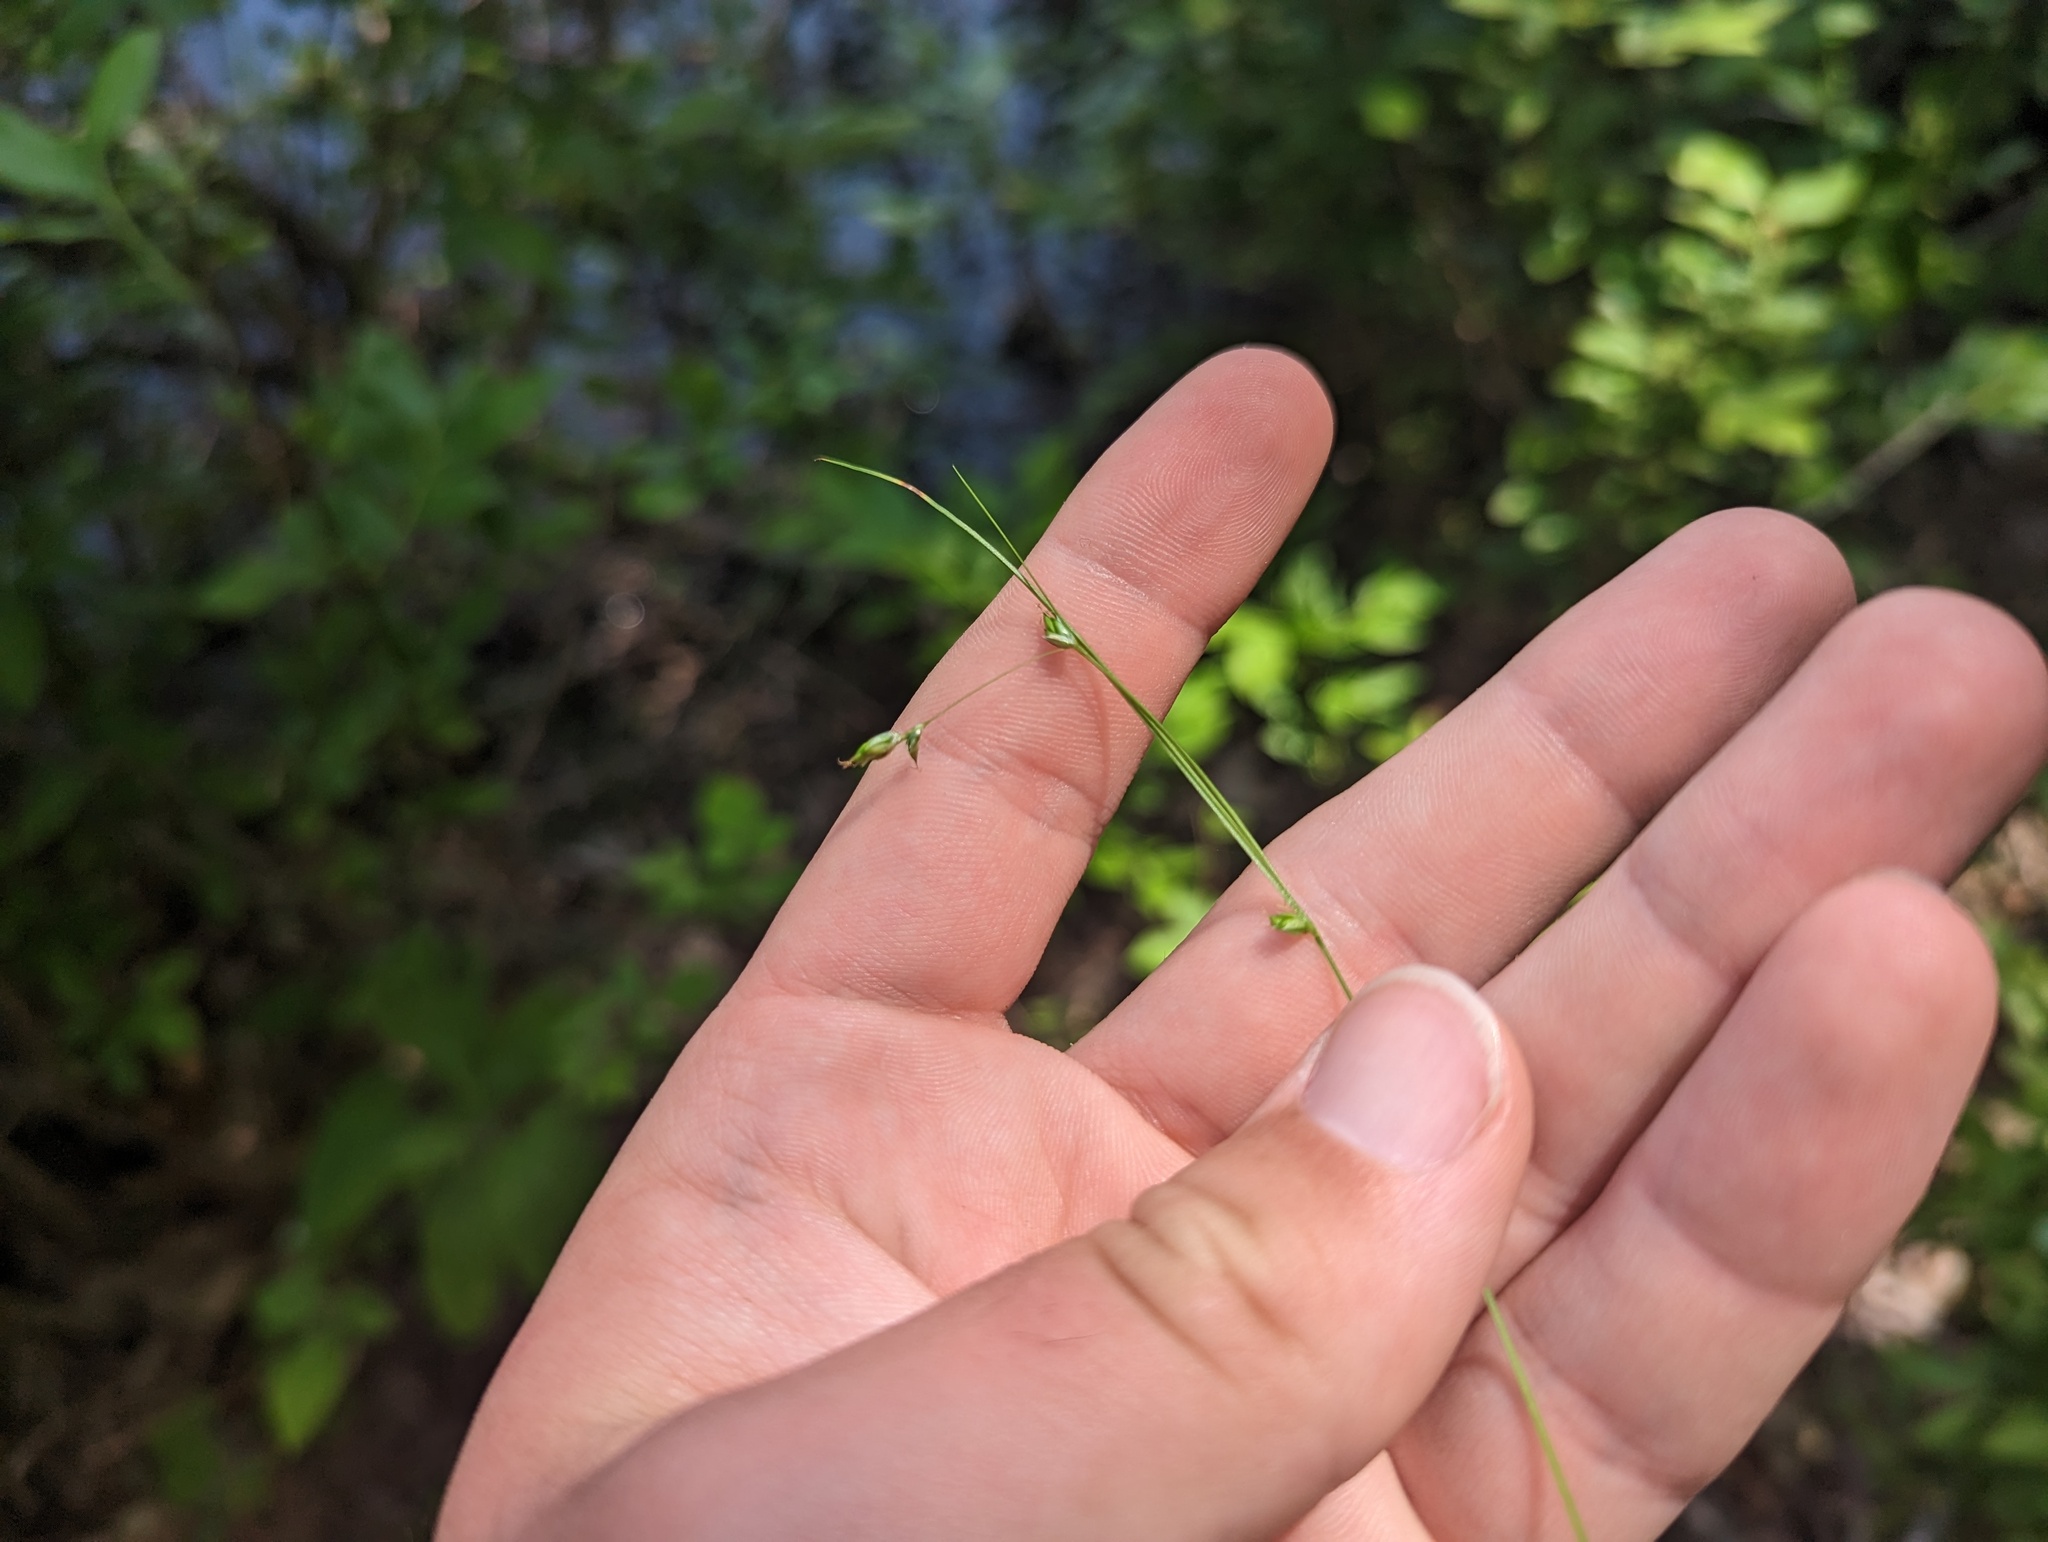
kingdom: Plantae
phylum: Tracheophyta
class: Liliopsida
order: Poales
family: Cyperaceae
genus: Carex
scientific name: Carex trisperma
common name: Three-seeded sedge
